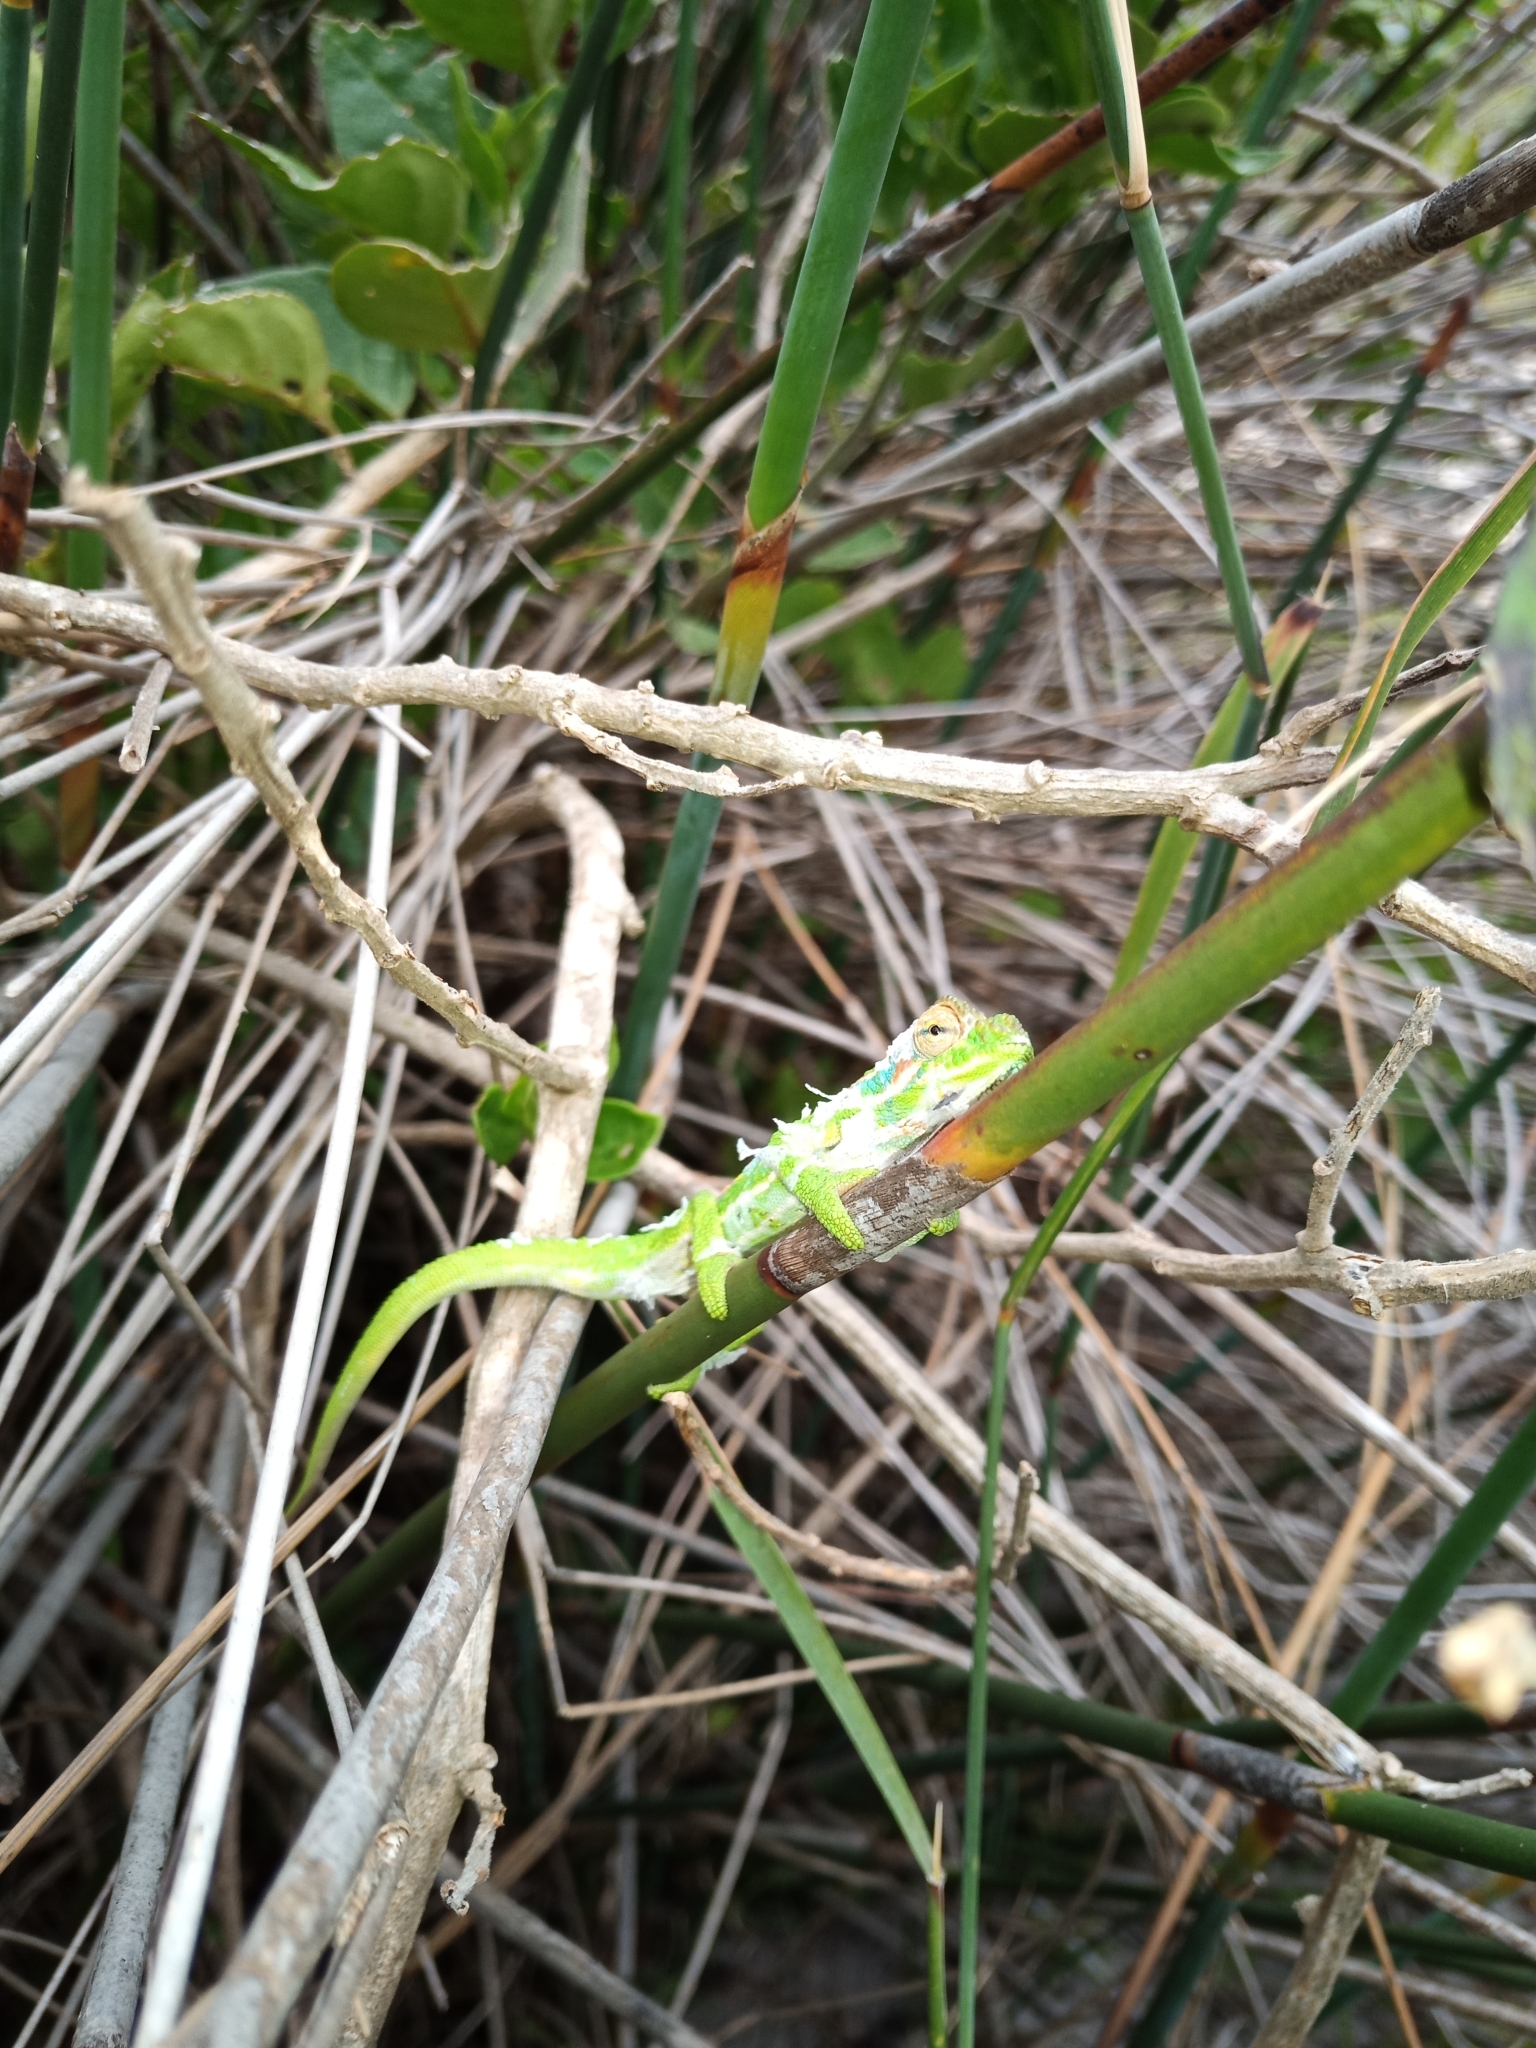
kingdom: Animalia
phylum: Chordata
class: Squamata
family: Chamaeleonidae
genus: Bradypodion
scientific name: Bradypodion pumilum
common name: Cape dwarf chameleon
